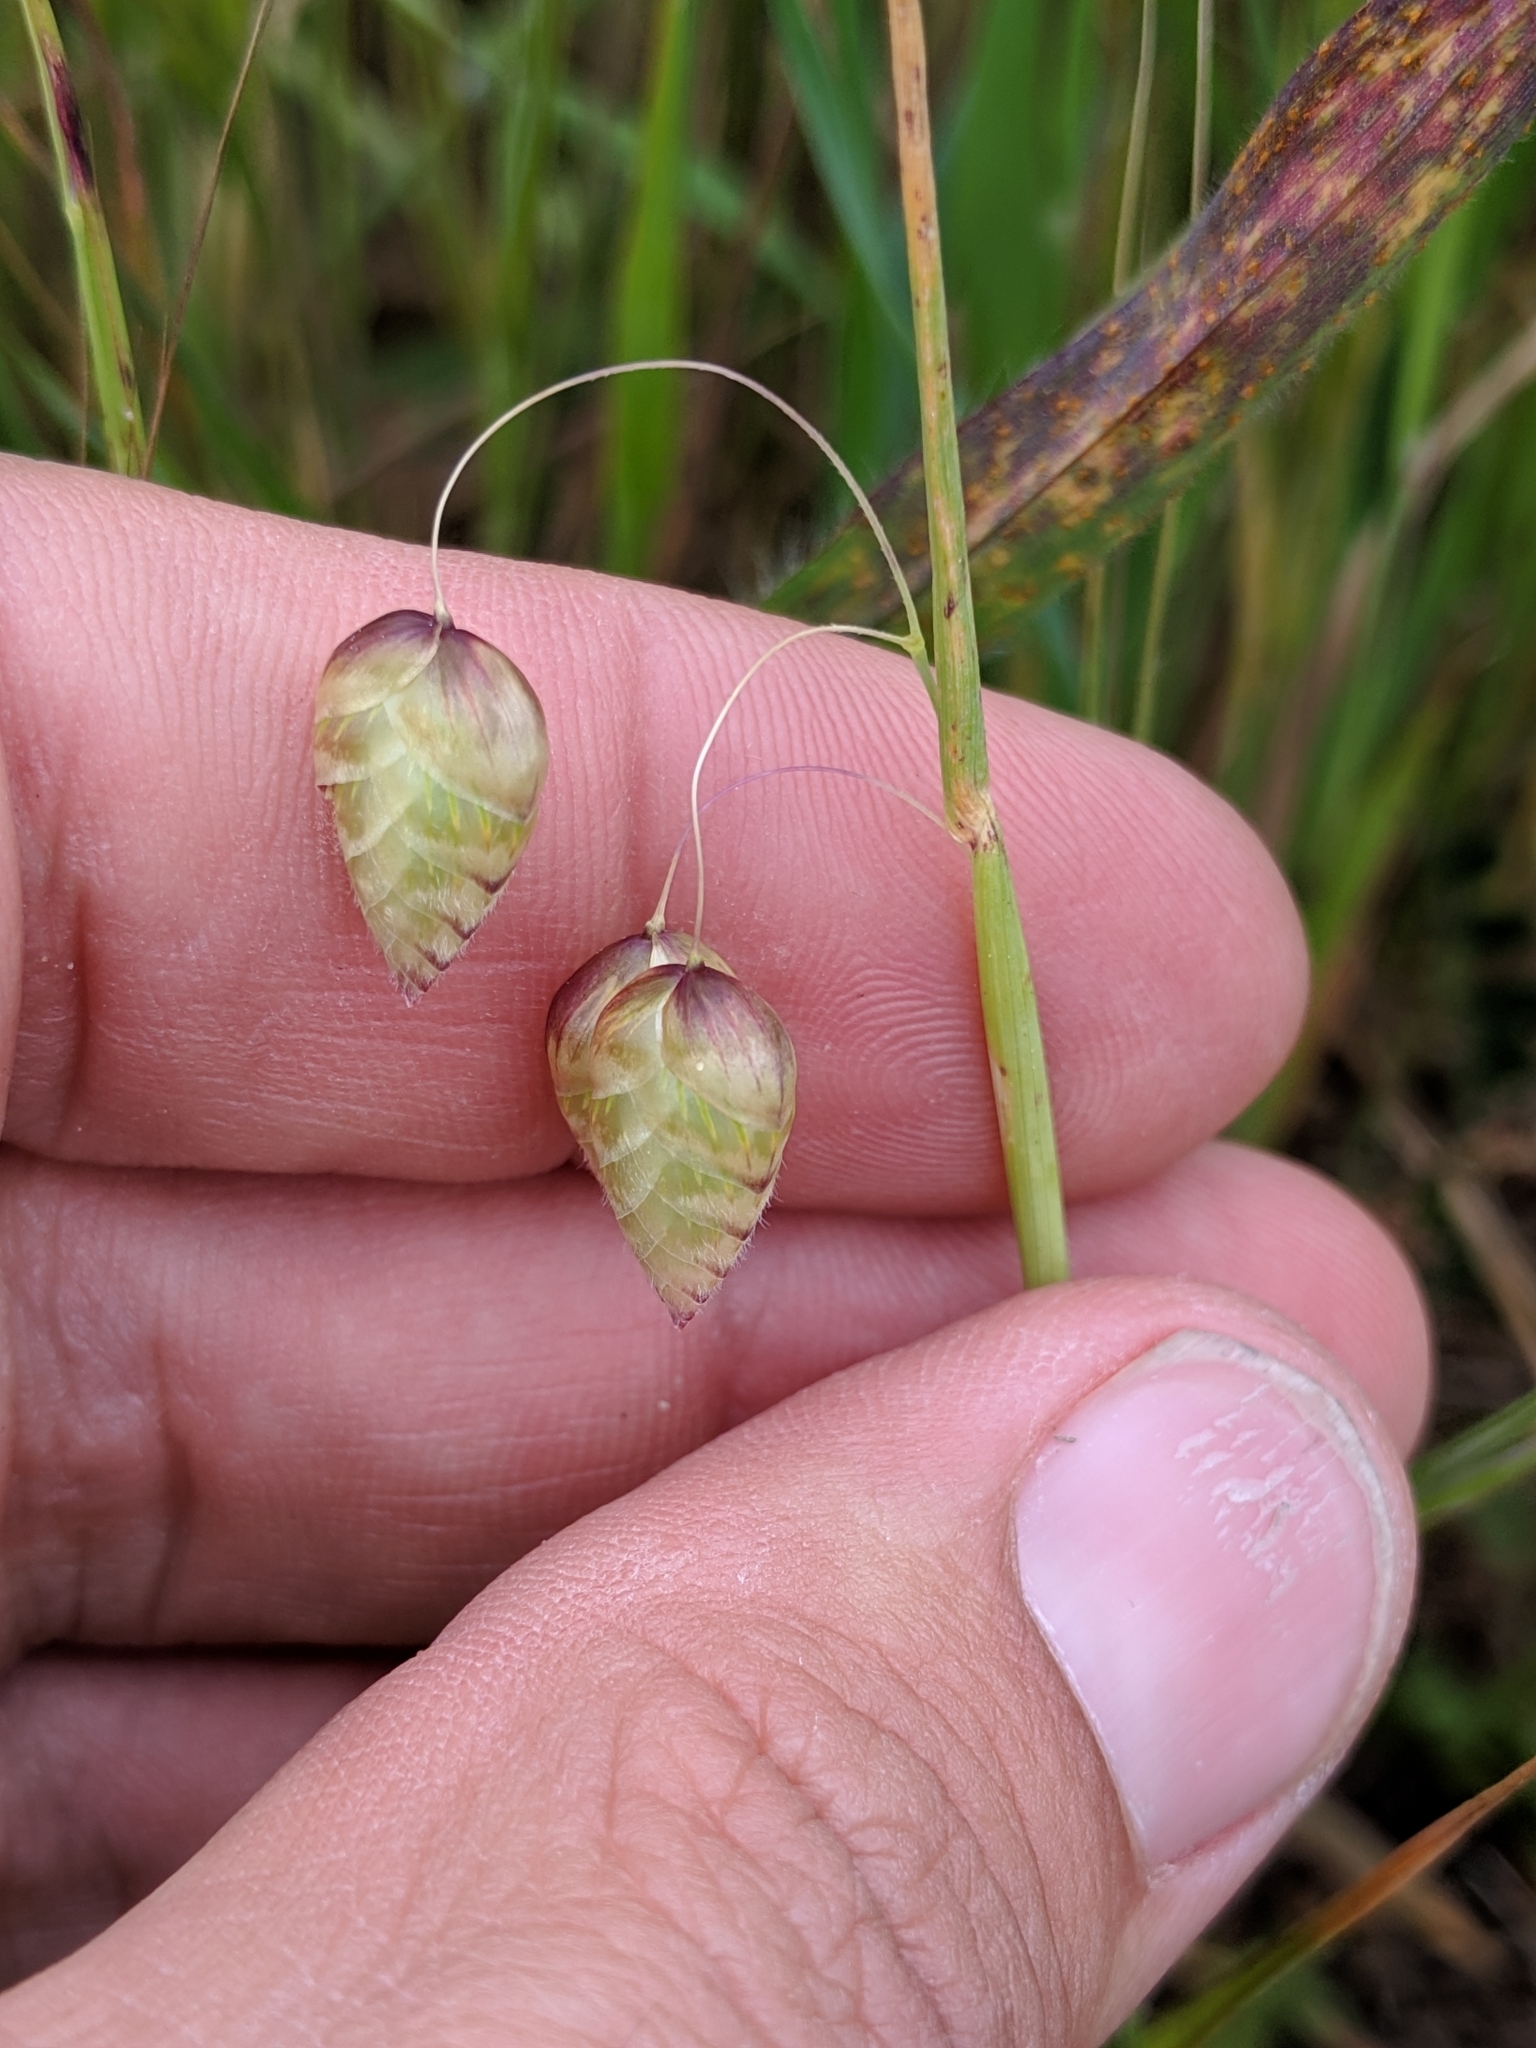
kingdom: Plantae
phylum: Tracheophyta
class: Liliopsida
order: Poales
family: Poaceae
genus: Briza
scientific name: Briza maxima
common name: Big quakinggrass
